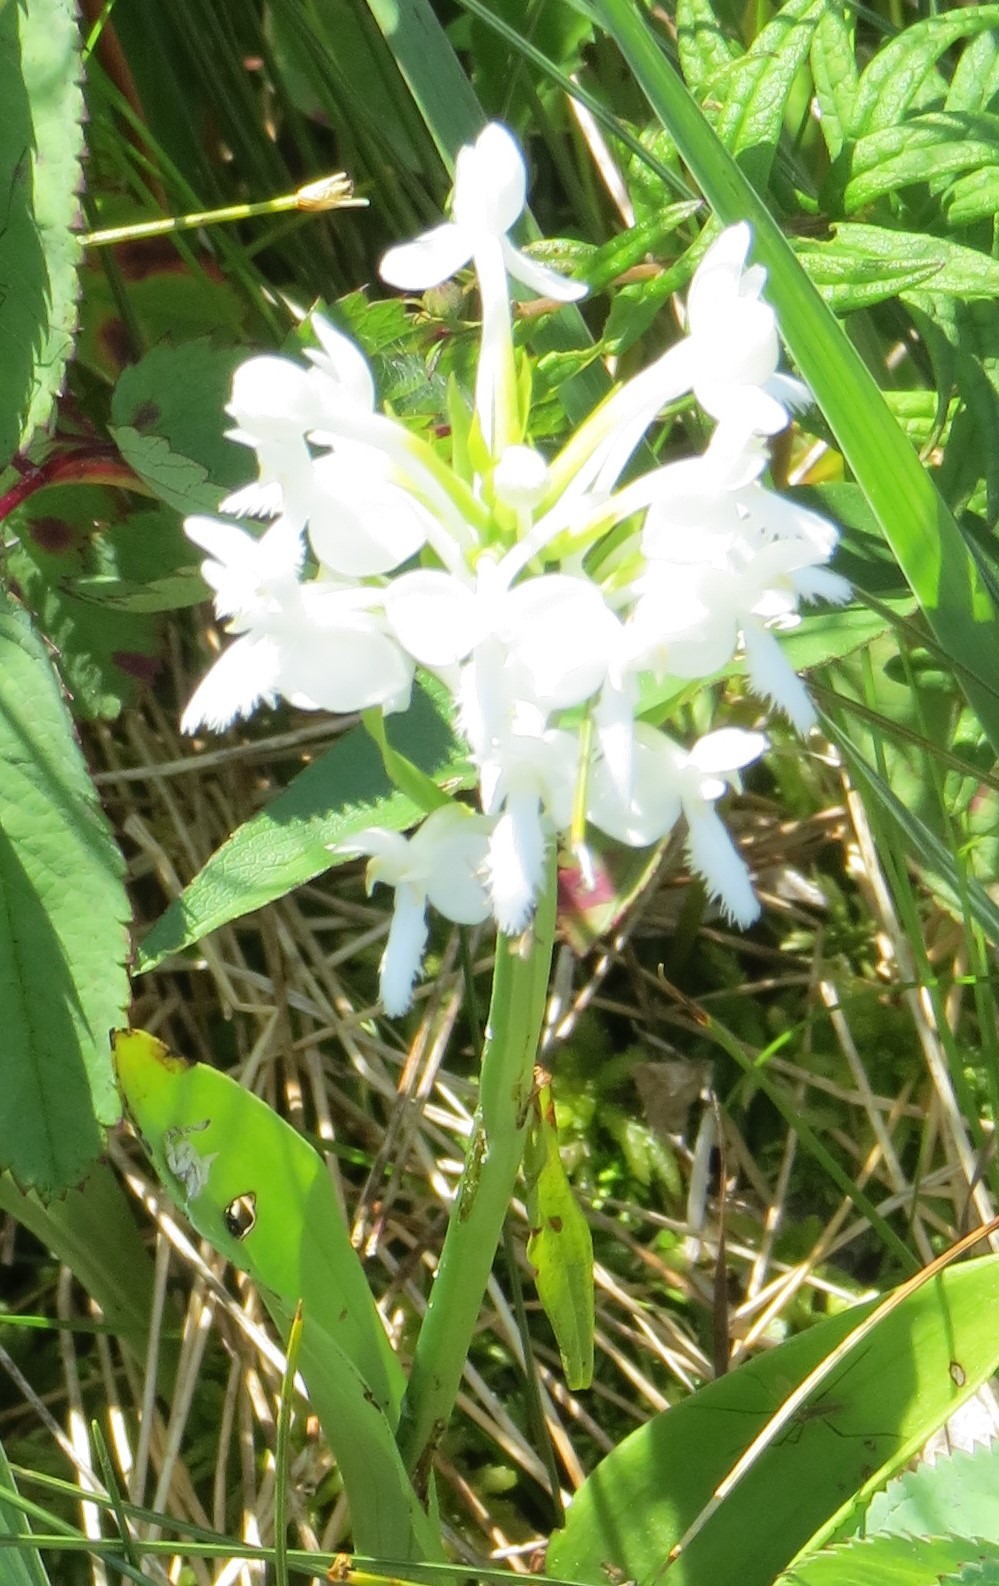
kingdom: Plantae
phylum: Tracheophyta
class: Liliopsida
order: Asparagales
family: Orchidaceae
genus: Platanthera
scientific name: Platanthera blephariglottis
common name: White fringed orchid
